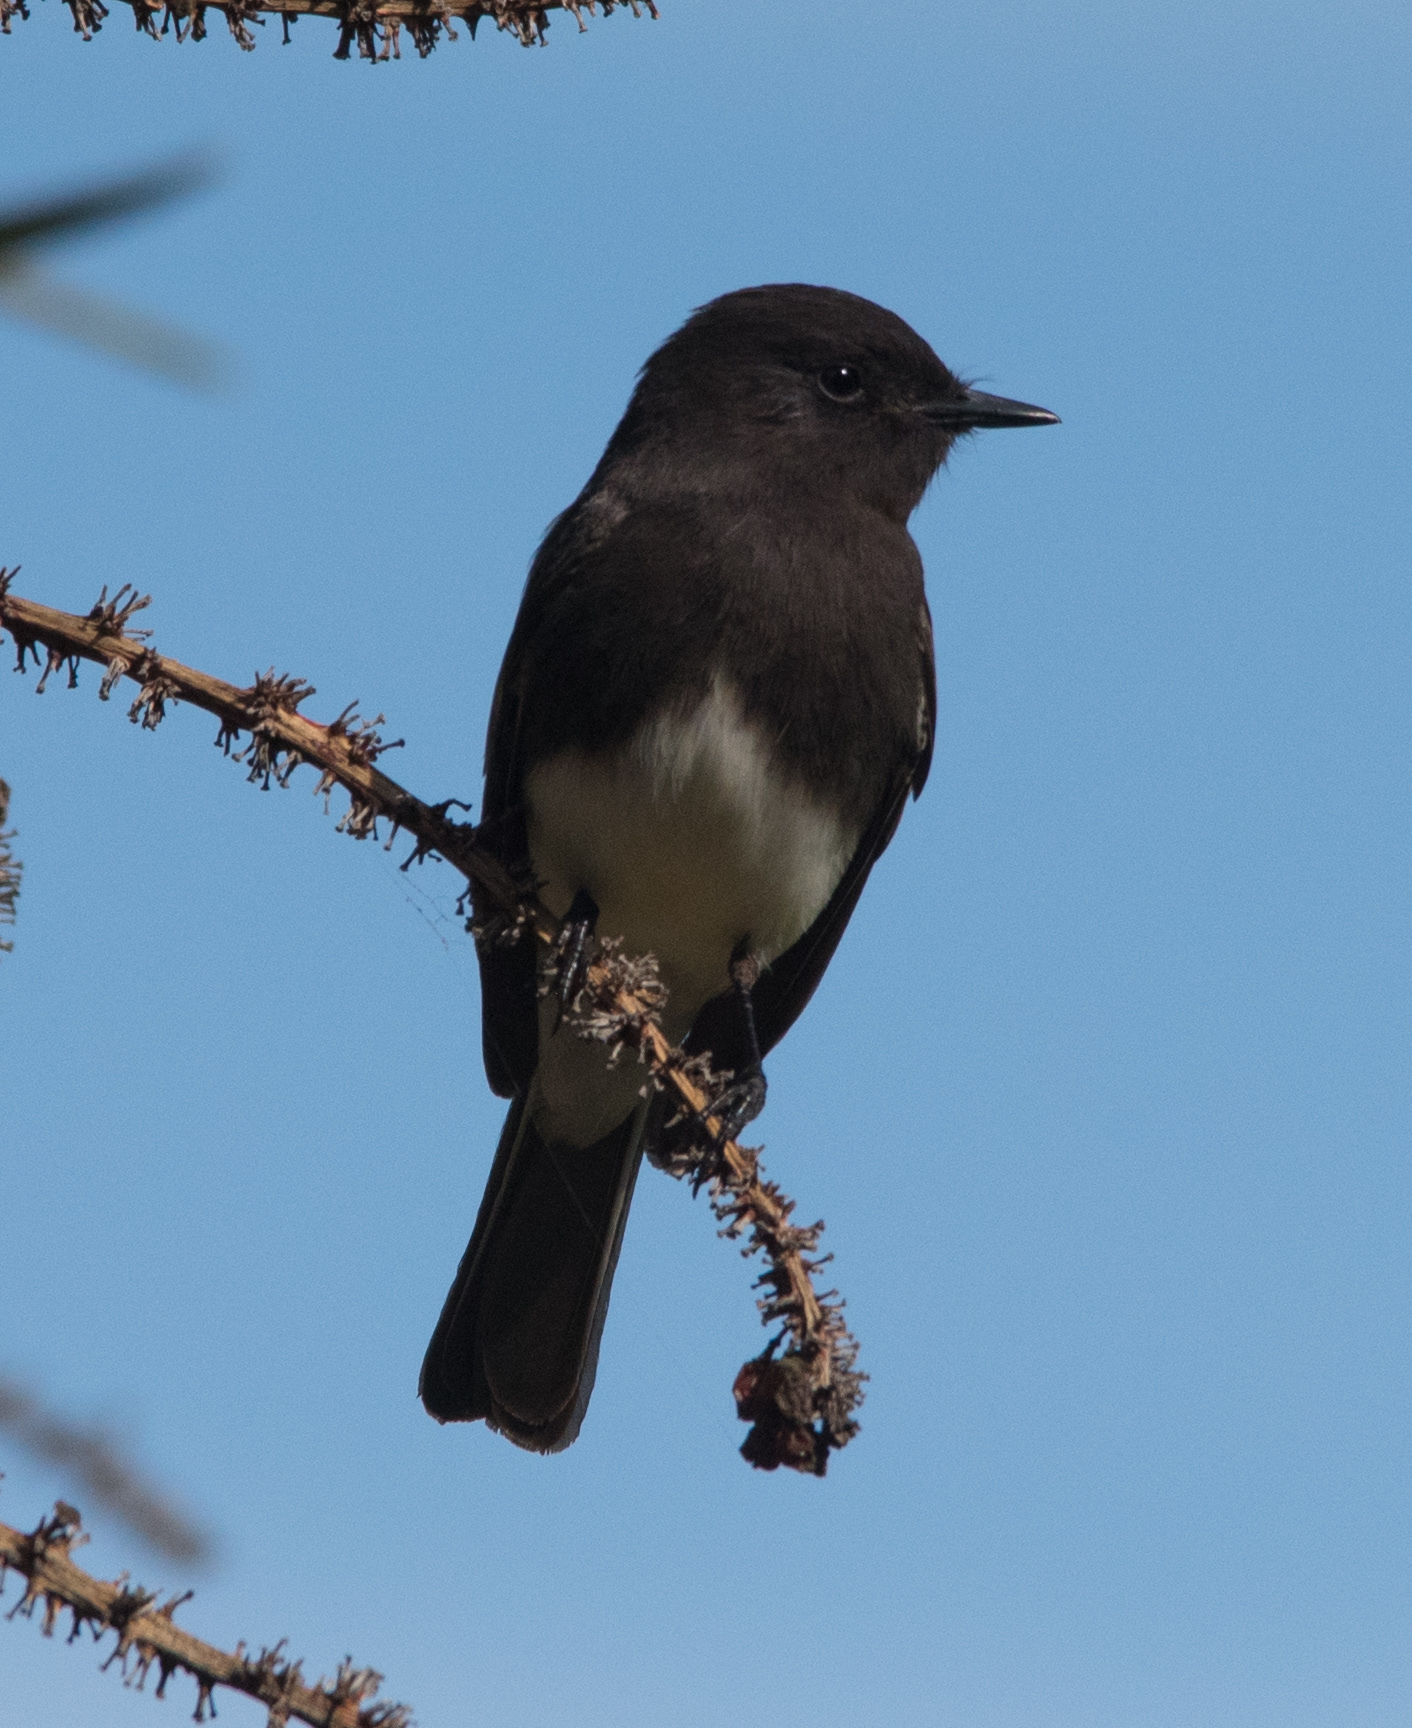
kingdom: Animalia
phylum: Chordata
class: Aves
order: Passeriformes
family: Tyrannidae
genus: Sayornis
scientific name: Sayornis nigricans
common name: Black phoebe
